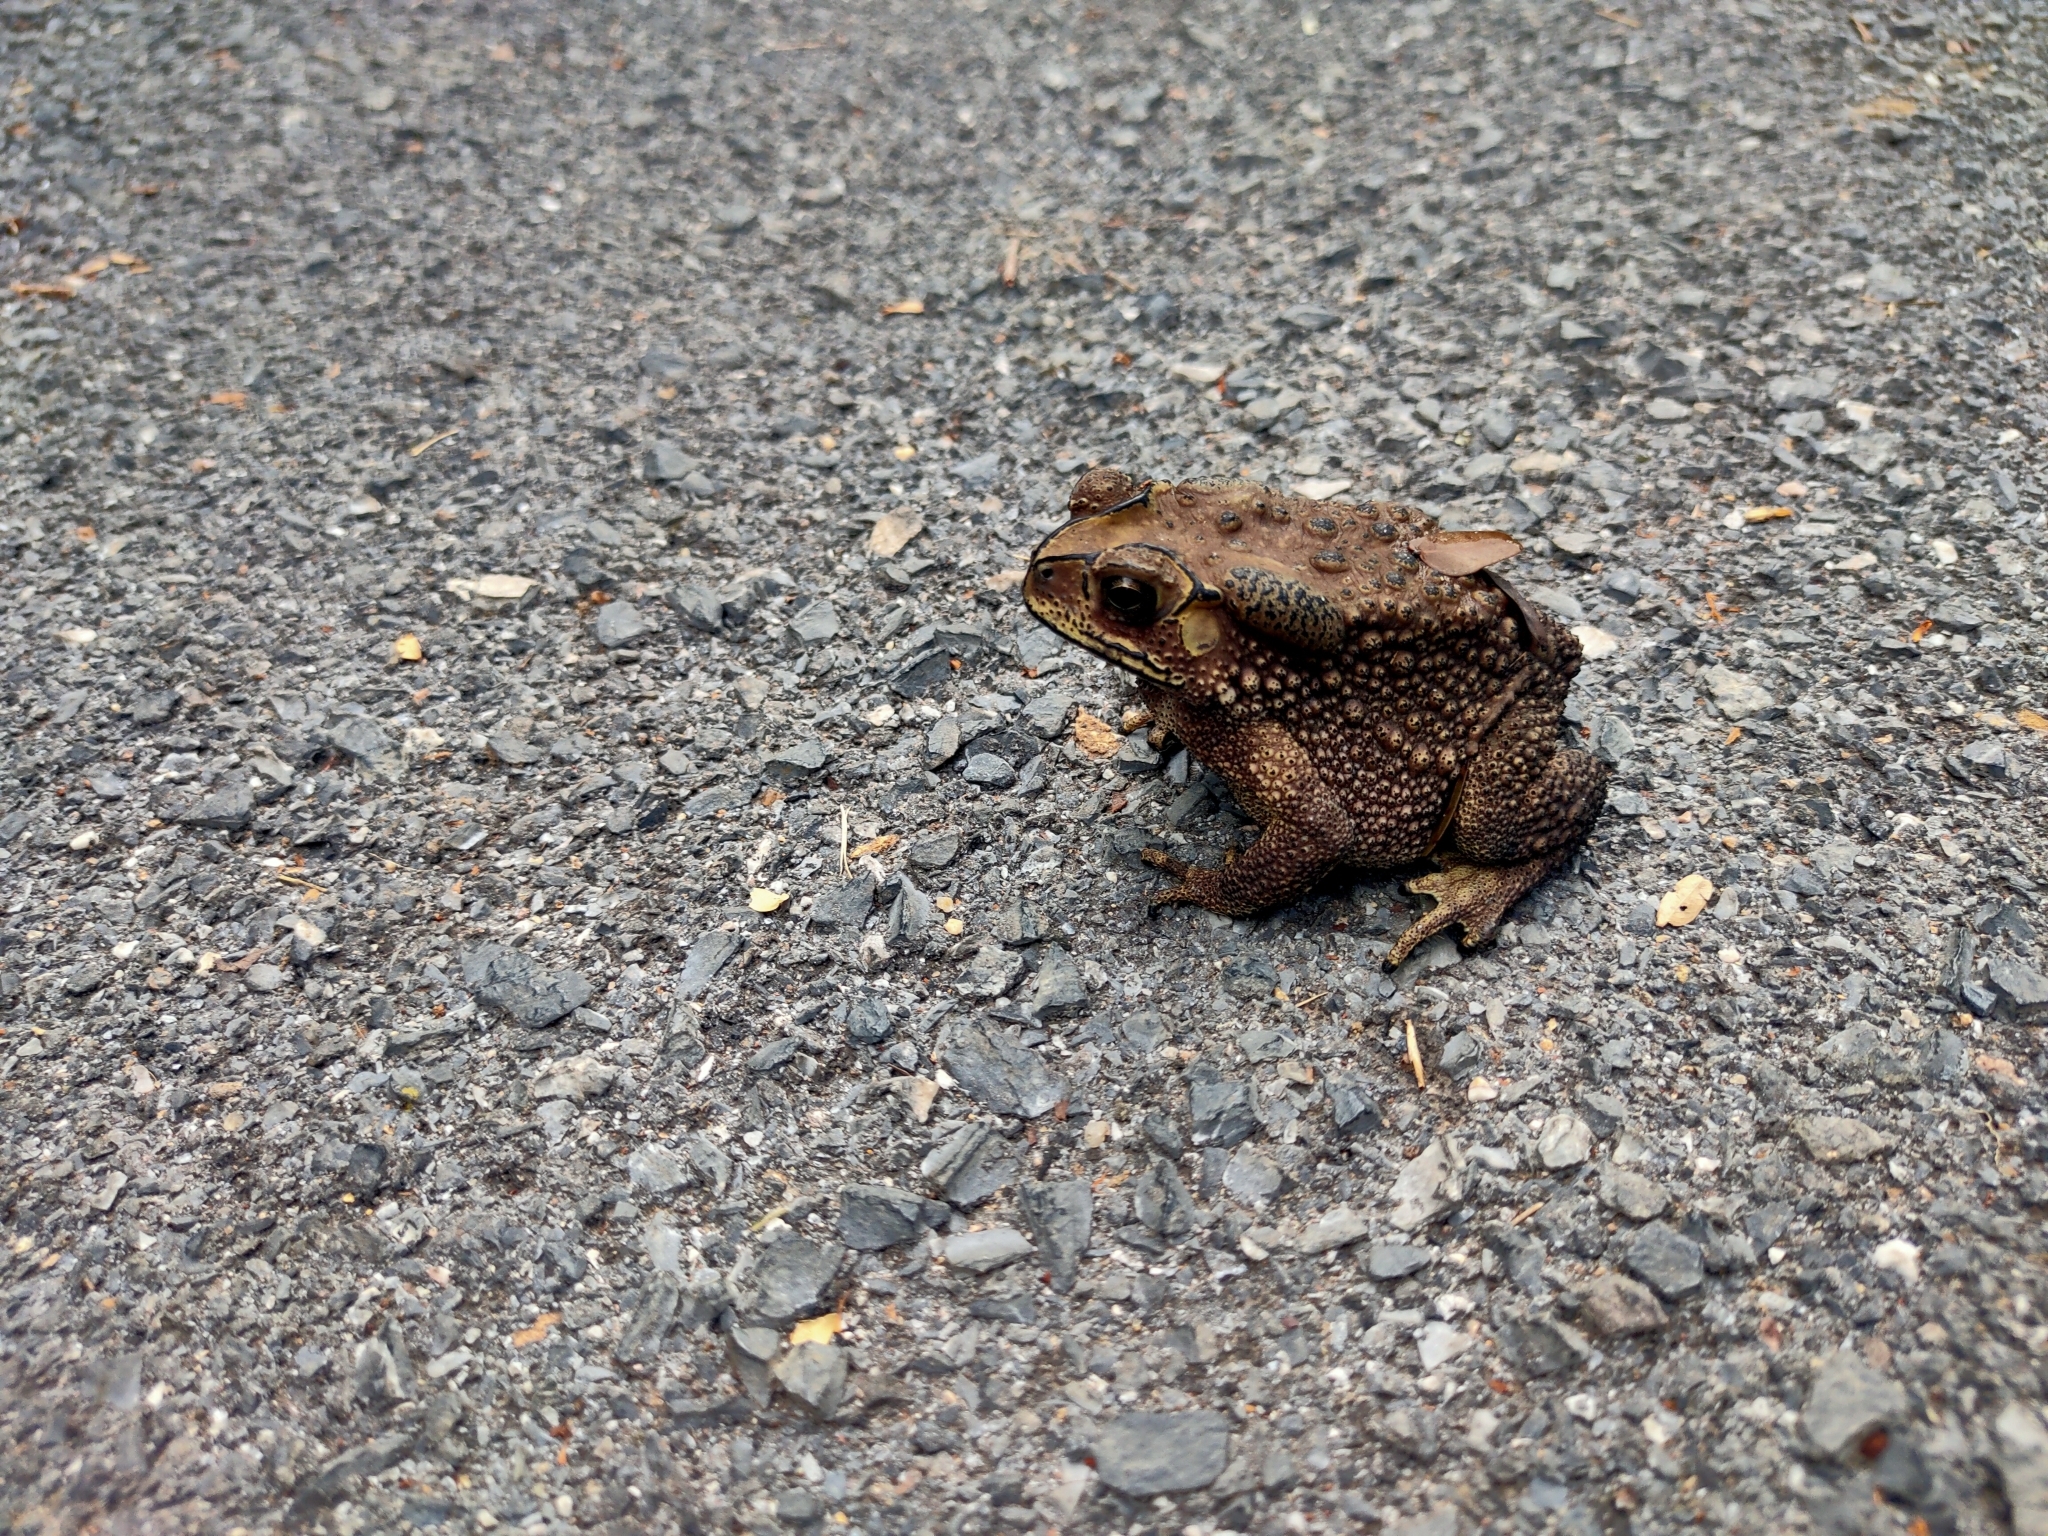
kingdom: Animalia
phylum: Chordata
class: Amphibia
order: Anura
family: Bufonidae
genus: Duttaphrynus
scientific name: Duttaphrynus melanostictus
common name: Common sunda toad
